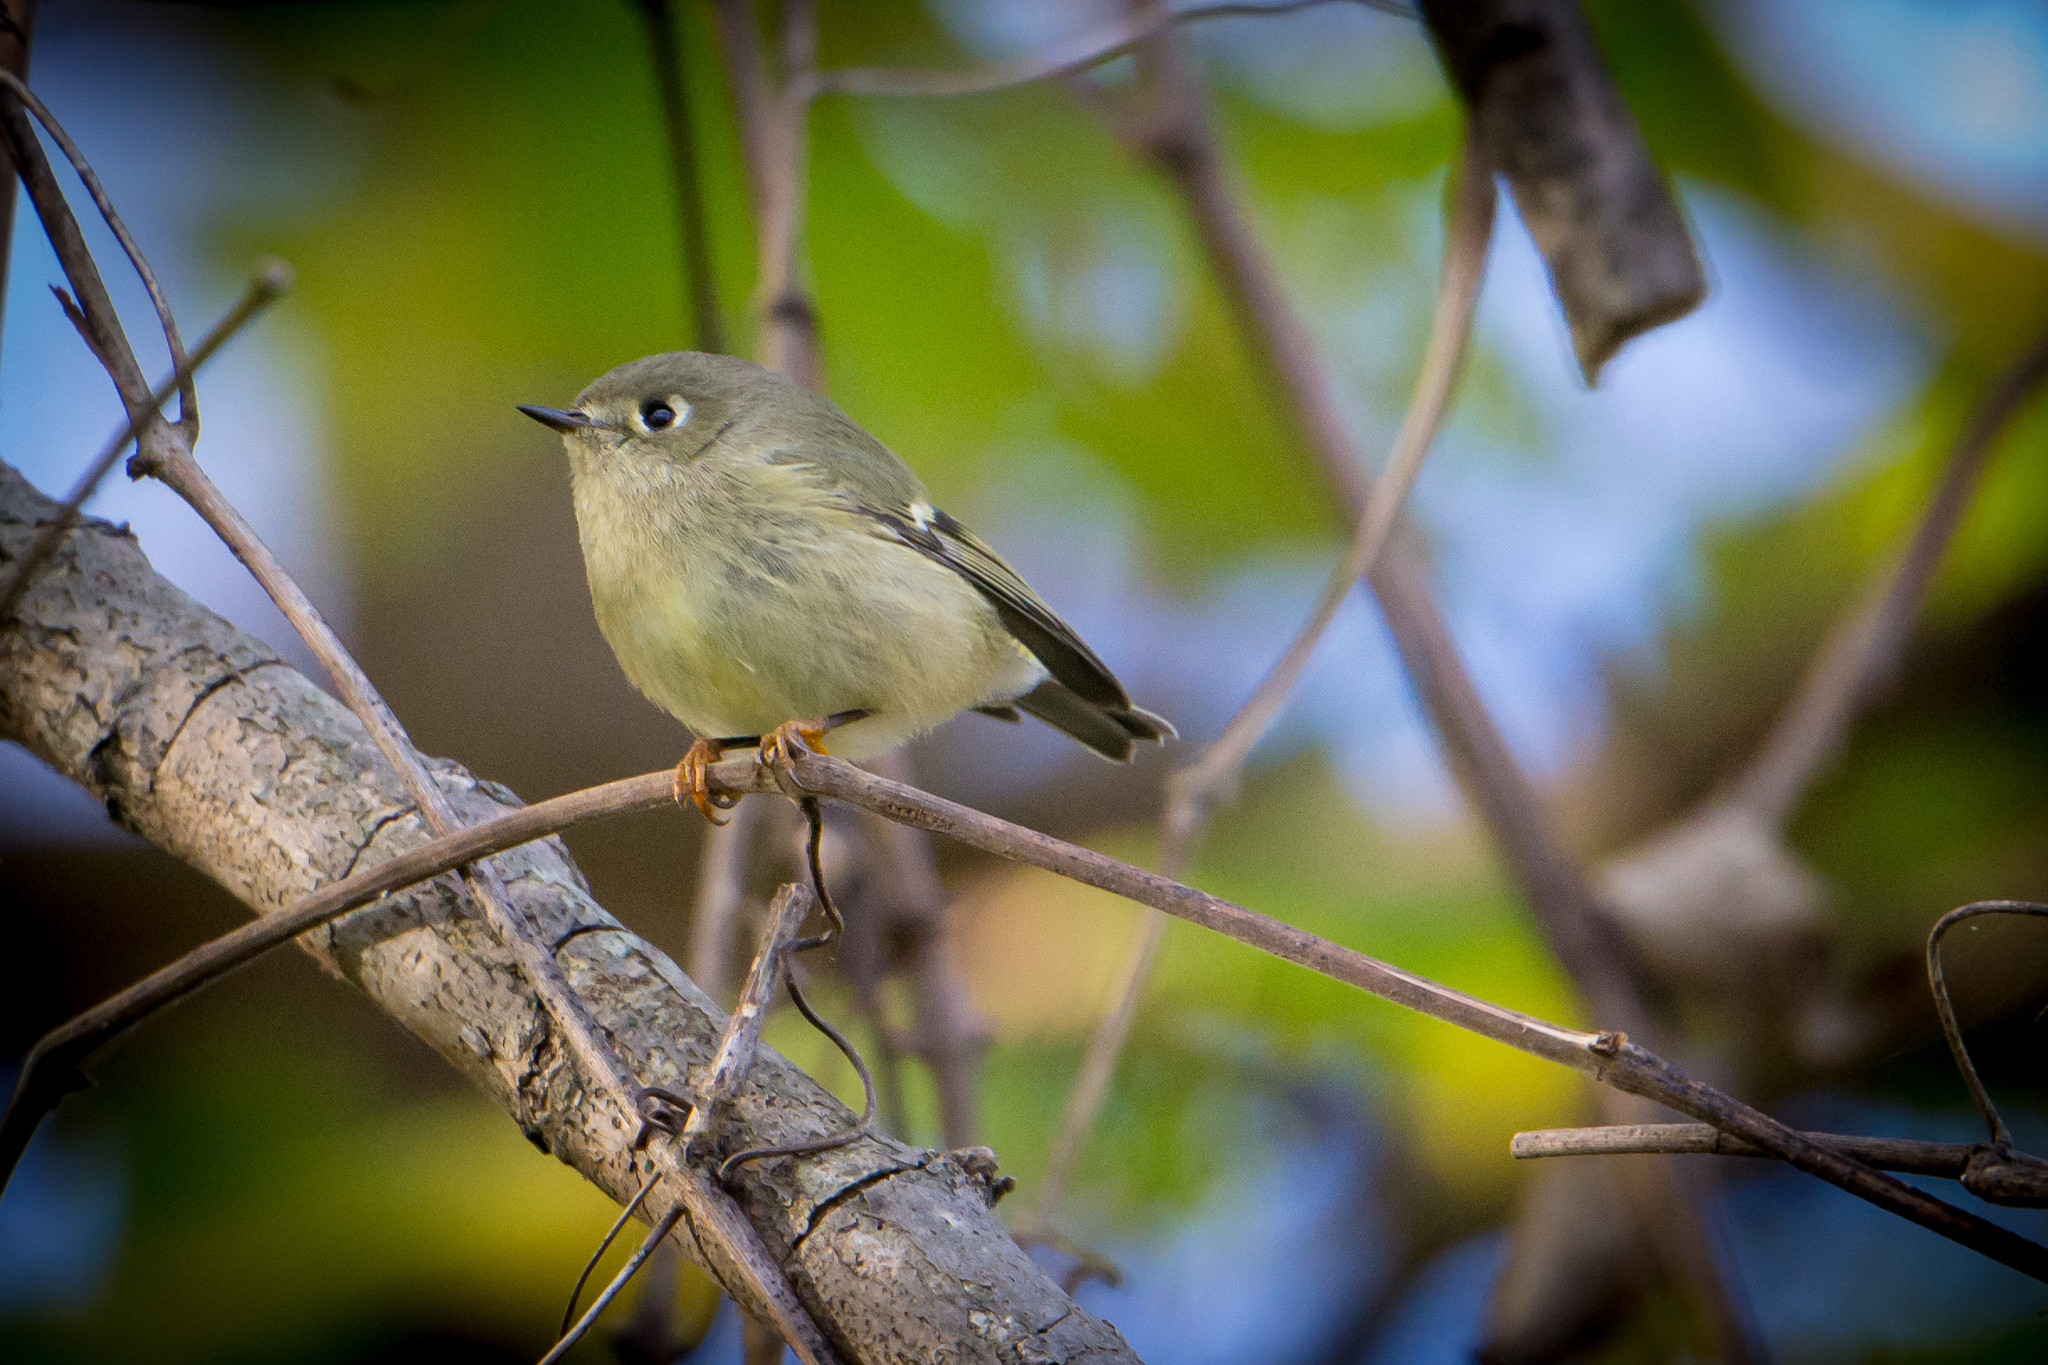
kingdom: Animalia
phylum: Chordata
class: Aves
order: Passeriformes
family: Regulidae
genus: Regulus
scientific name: Regulus calendula
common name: Ruby-crowned kinglet
